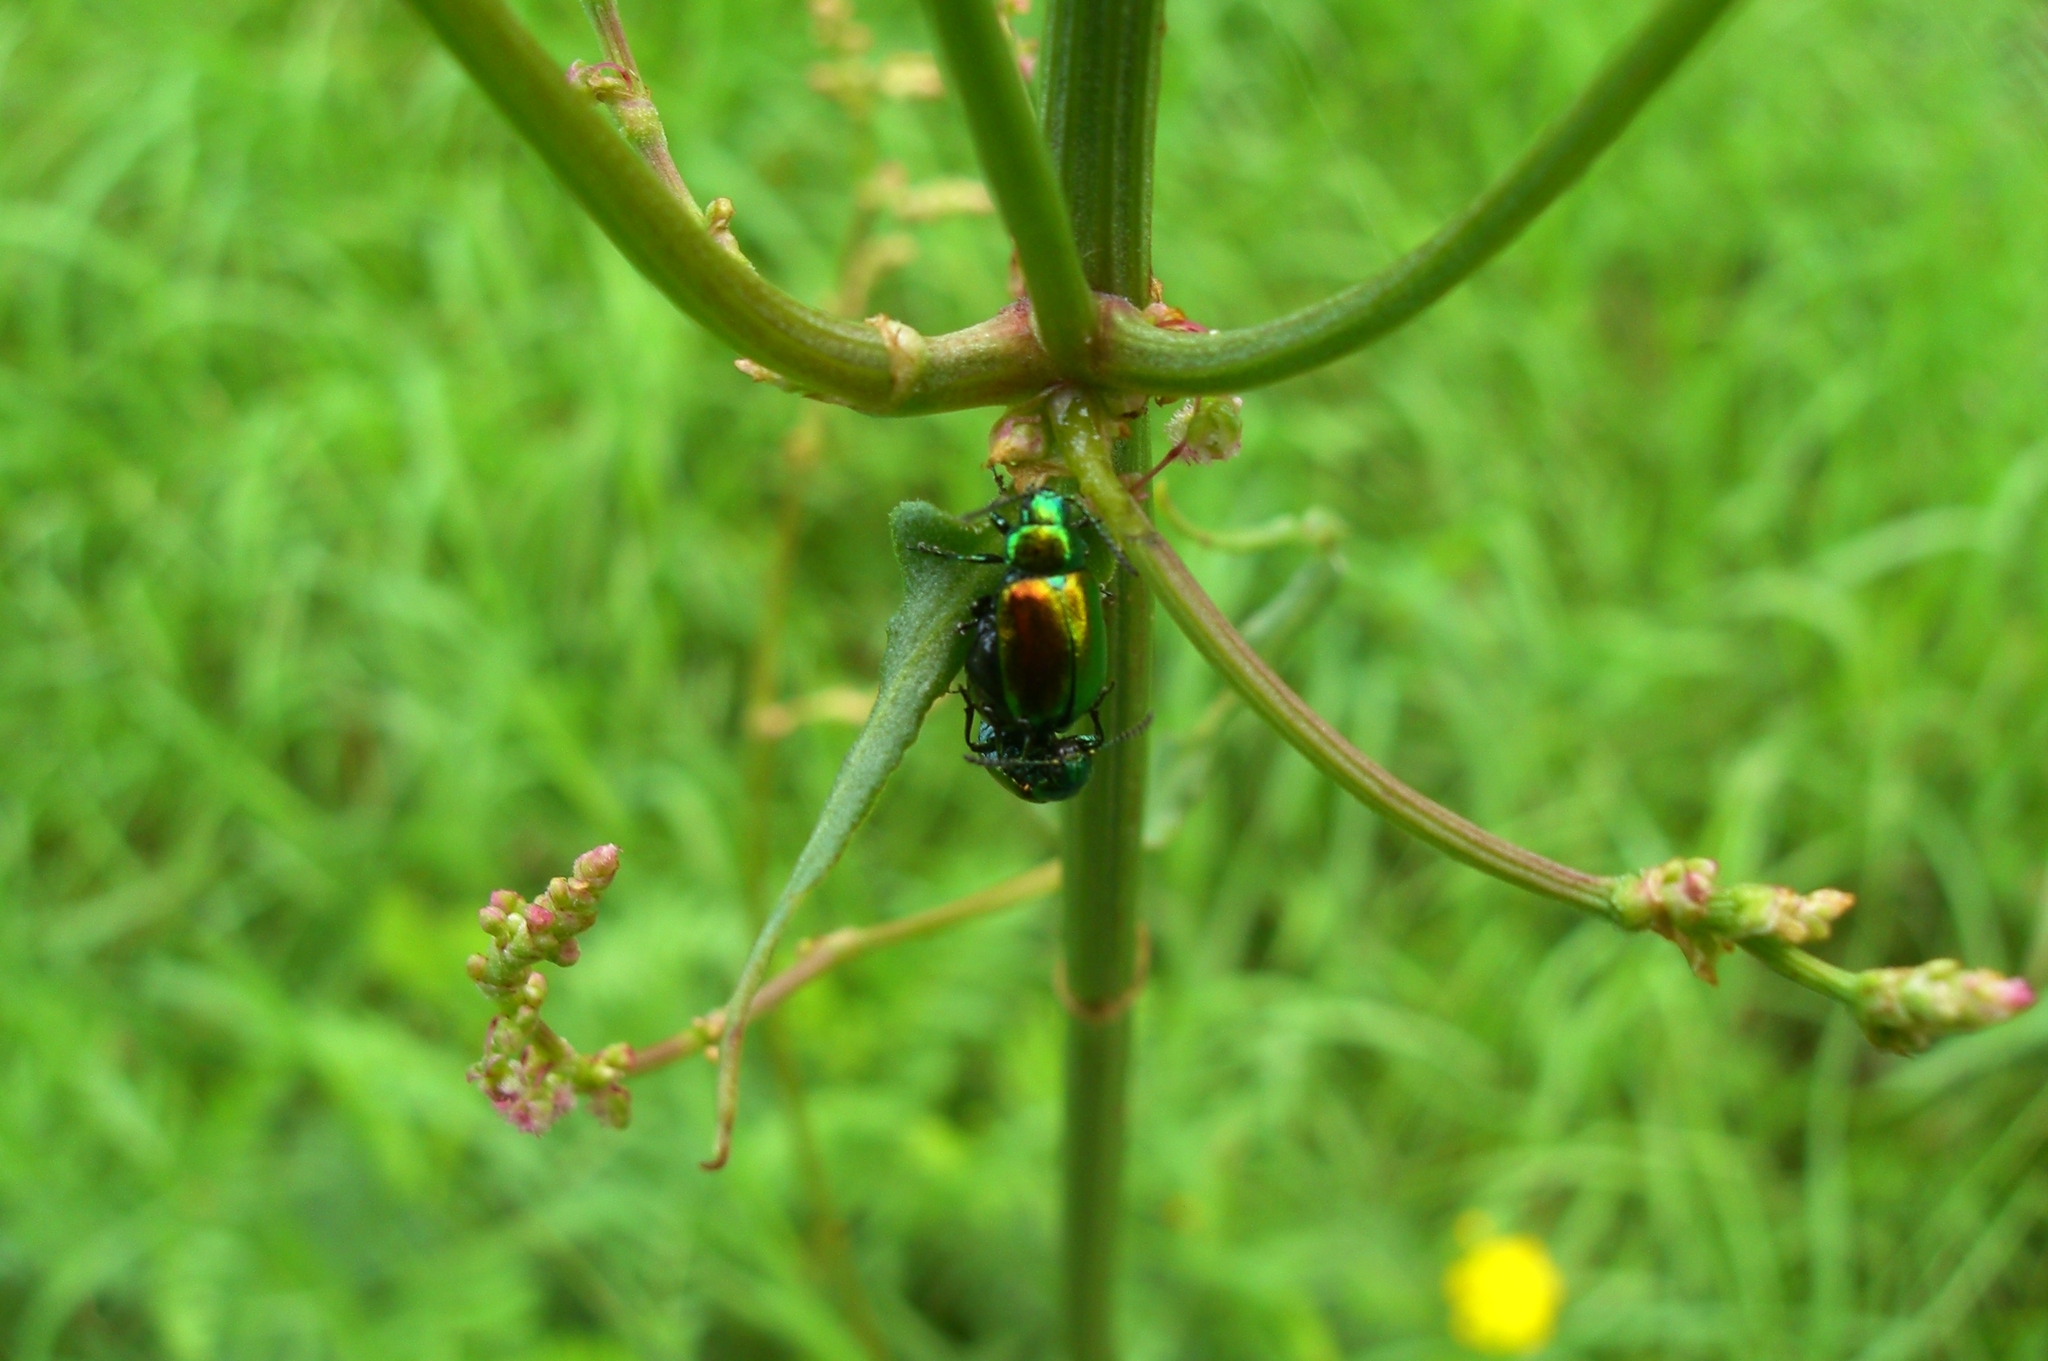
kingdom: Animalia
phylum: Arthropoda
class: Insecta
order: Coleoptera
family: Chrysomelidae
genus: Gastrophysa
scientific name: Gastrophysa viridula
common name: Green dock beetle
